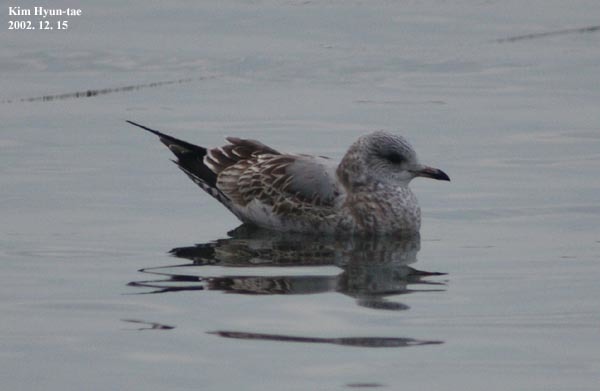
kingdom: Animalia
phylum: Chordata
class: Aves
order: Charadriiformes
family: Laridae
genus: Larus
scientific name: Larus canus
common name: Mew gull
